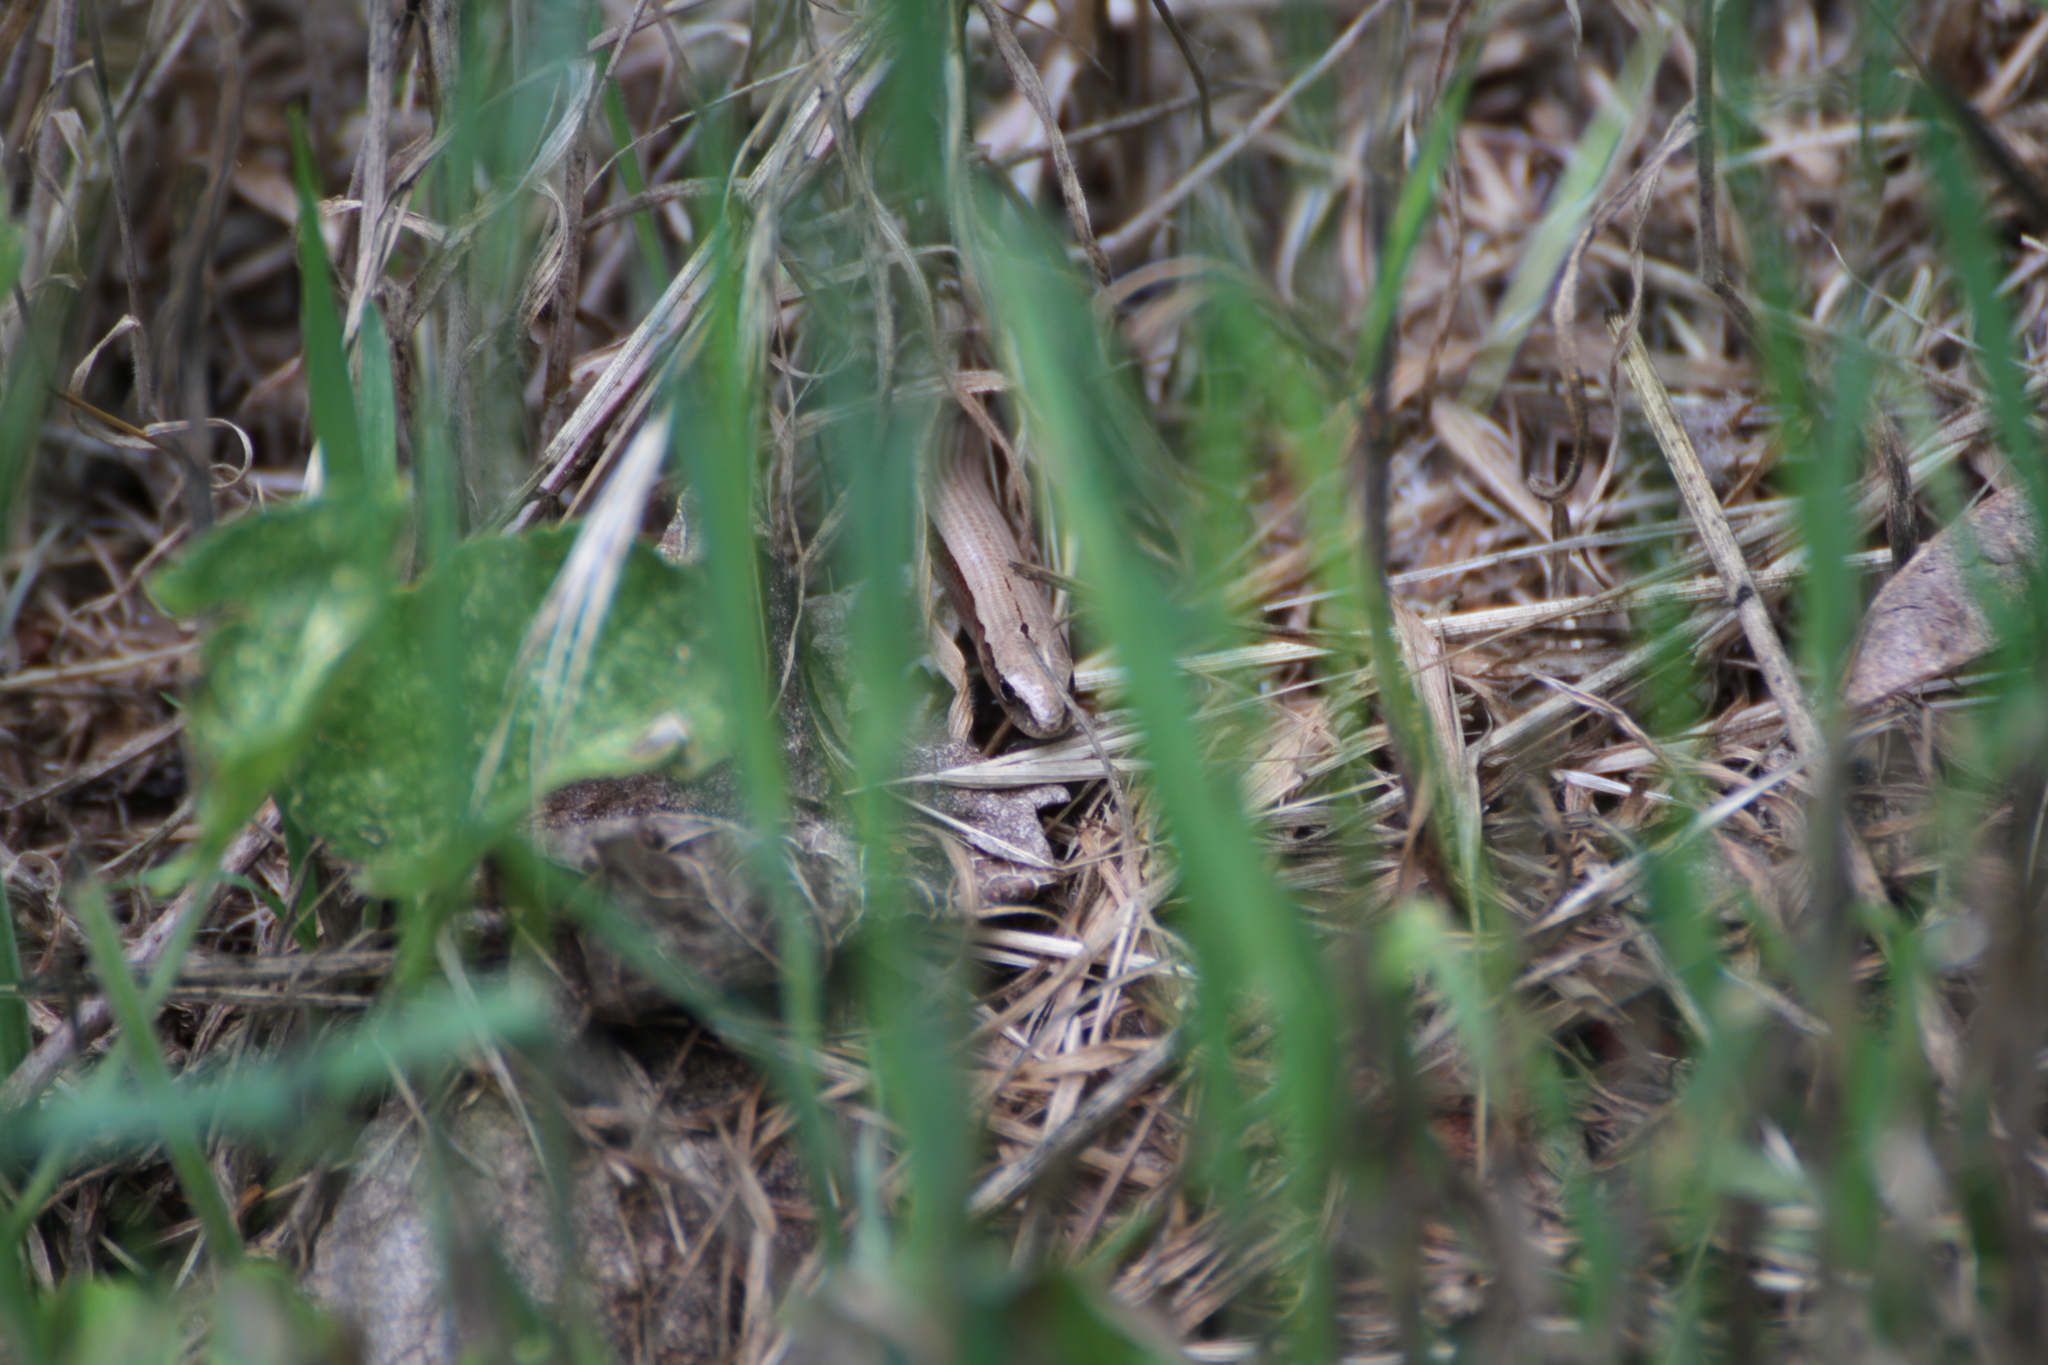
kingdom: Animalia
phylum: Chordata
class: Squamata
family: Anguidae
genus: Anguis
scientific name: Anguis veronensis
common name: Italian slow worm
